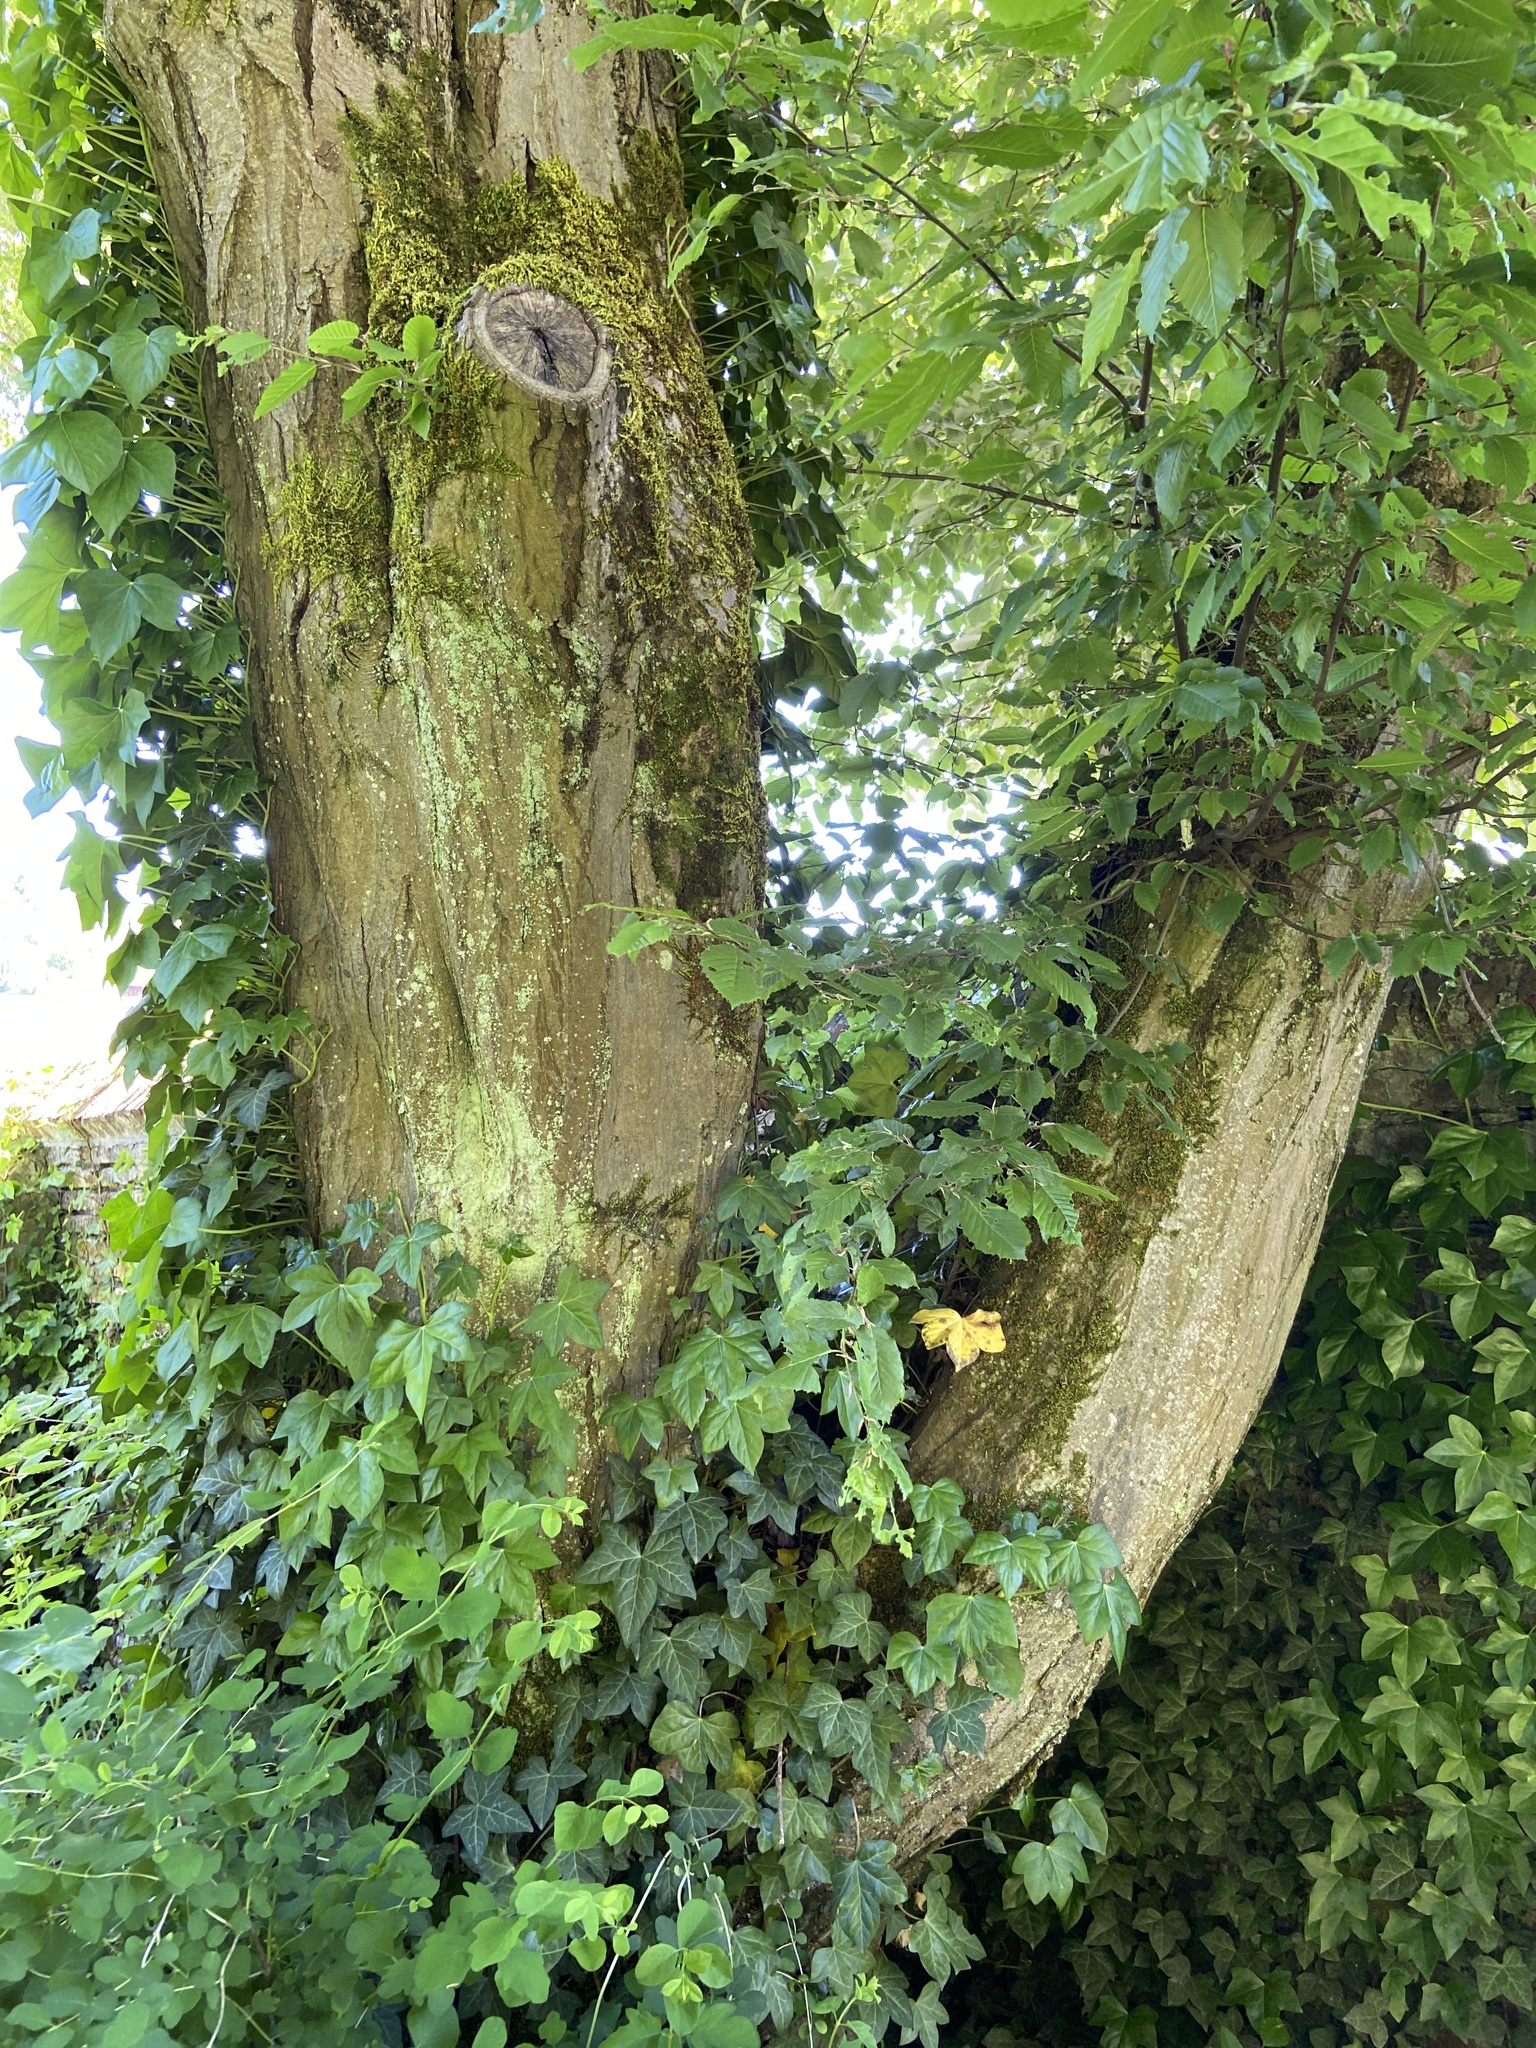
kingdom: Plantae
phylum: Tracheophyta
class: Magnoliopsida
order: Fagales
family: Betulaceae
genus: Carpinus
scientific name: Carpinus betulus
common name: Hornbeam
